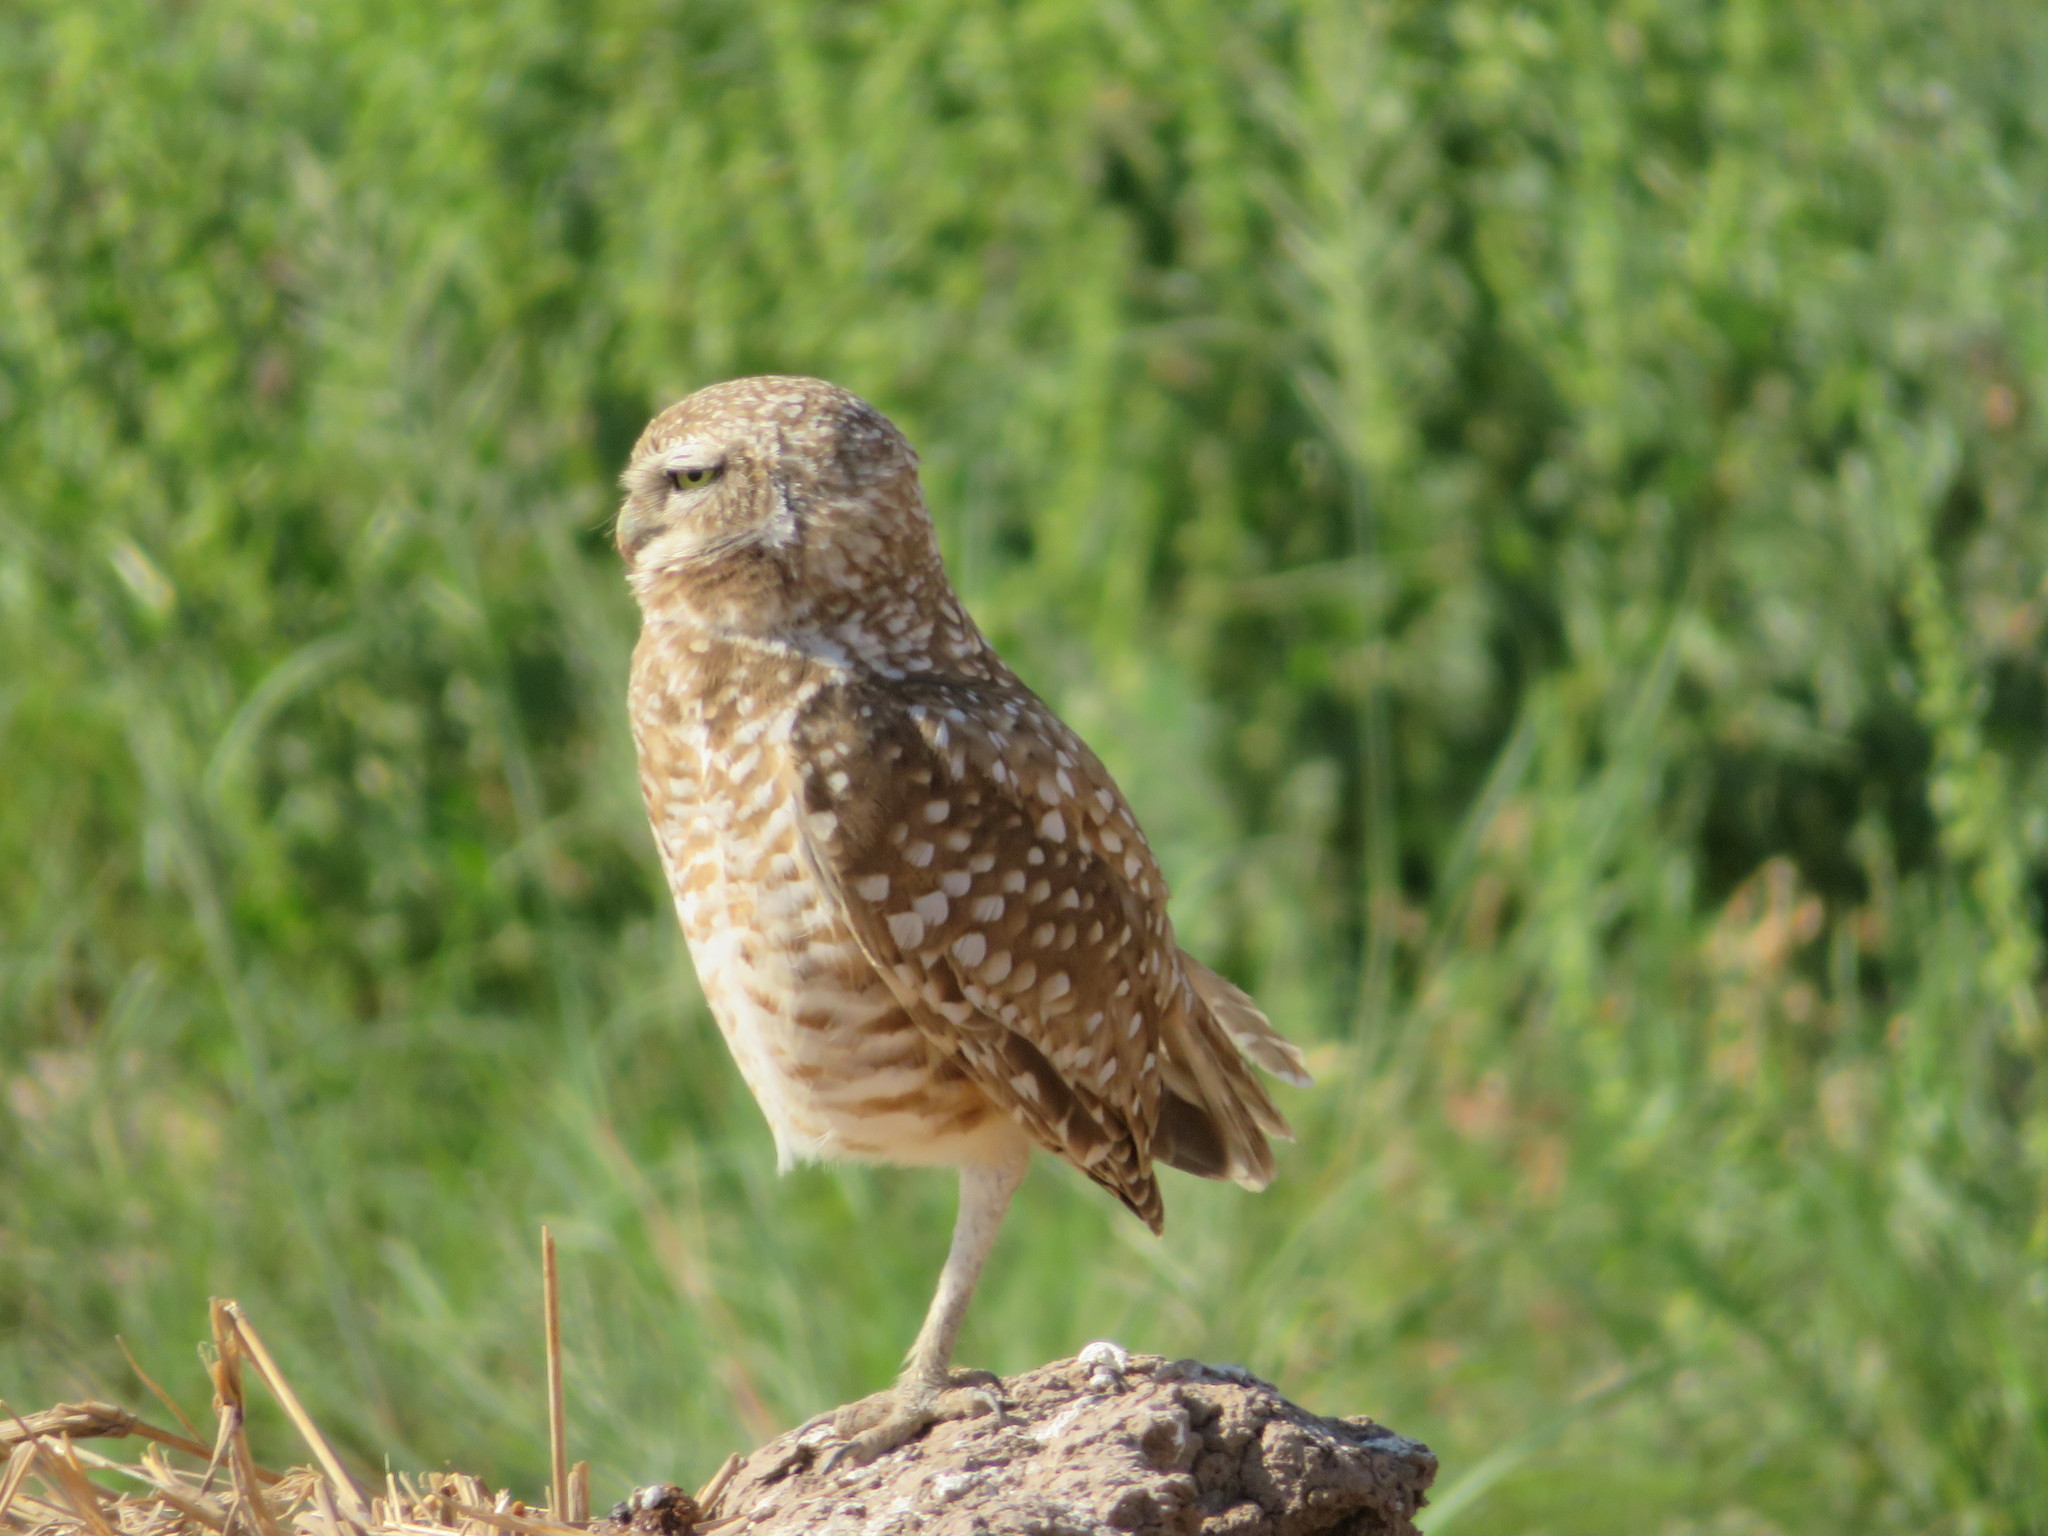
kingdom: Animalia
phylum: Chordata
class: Aves
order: Strigiformes
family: Strigidae
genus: Athene
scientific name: Athene cunicularia
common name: Burrowing owl
